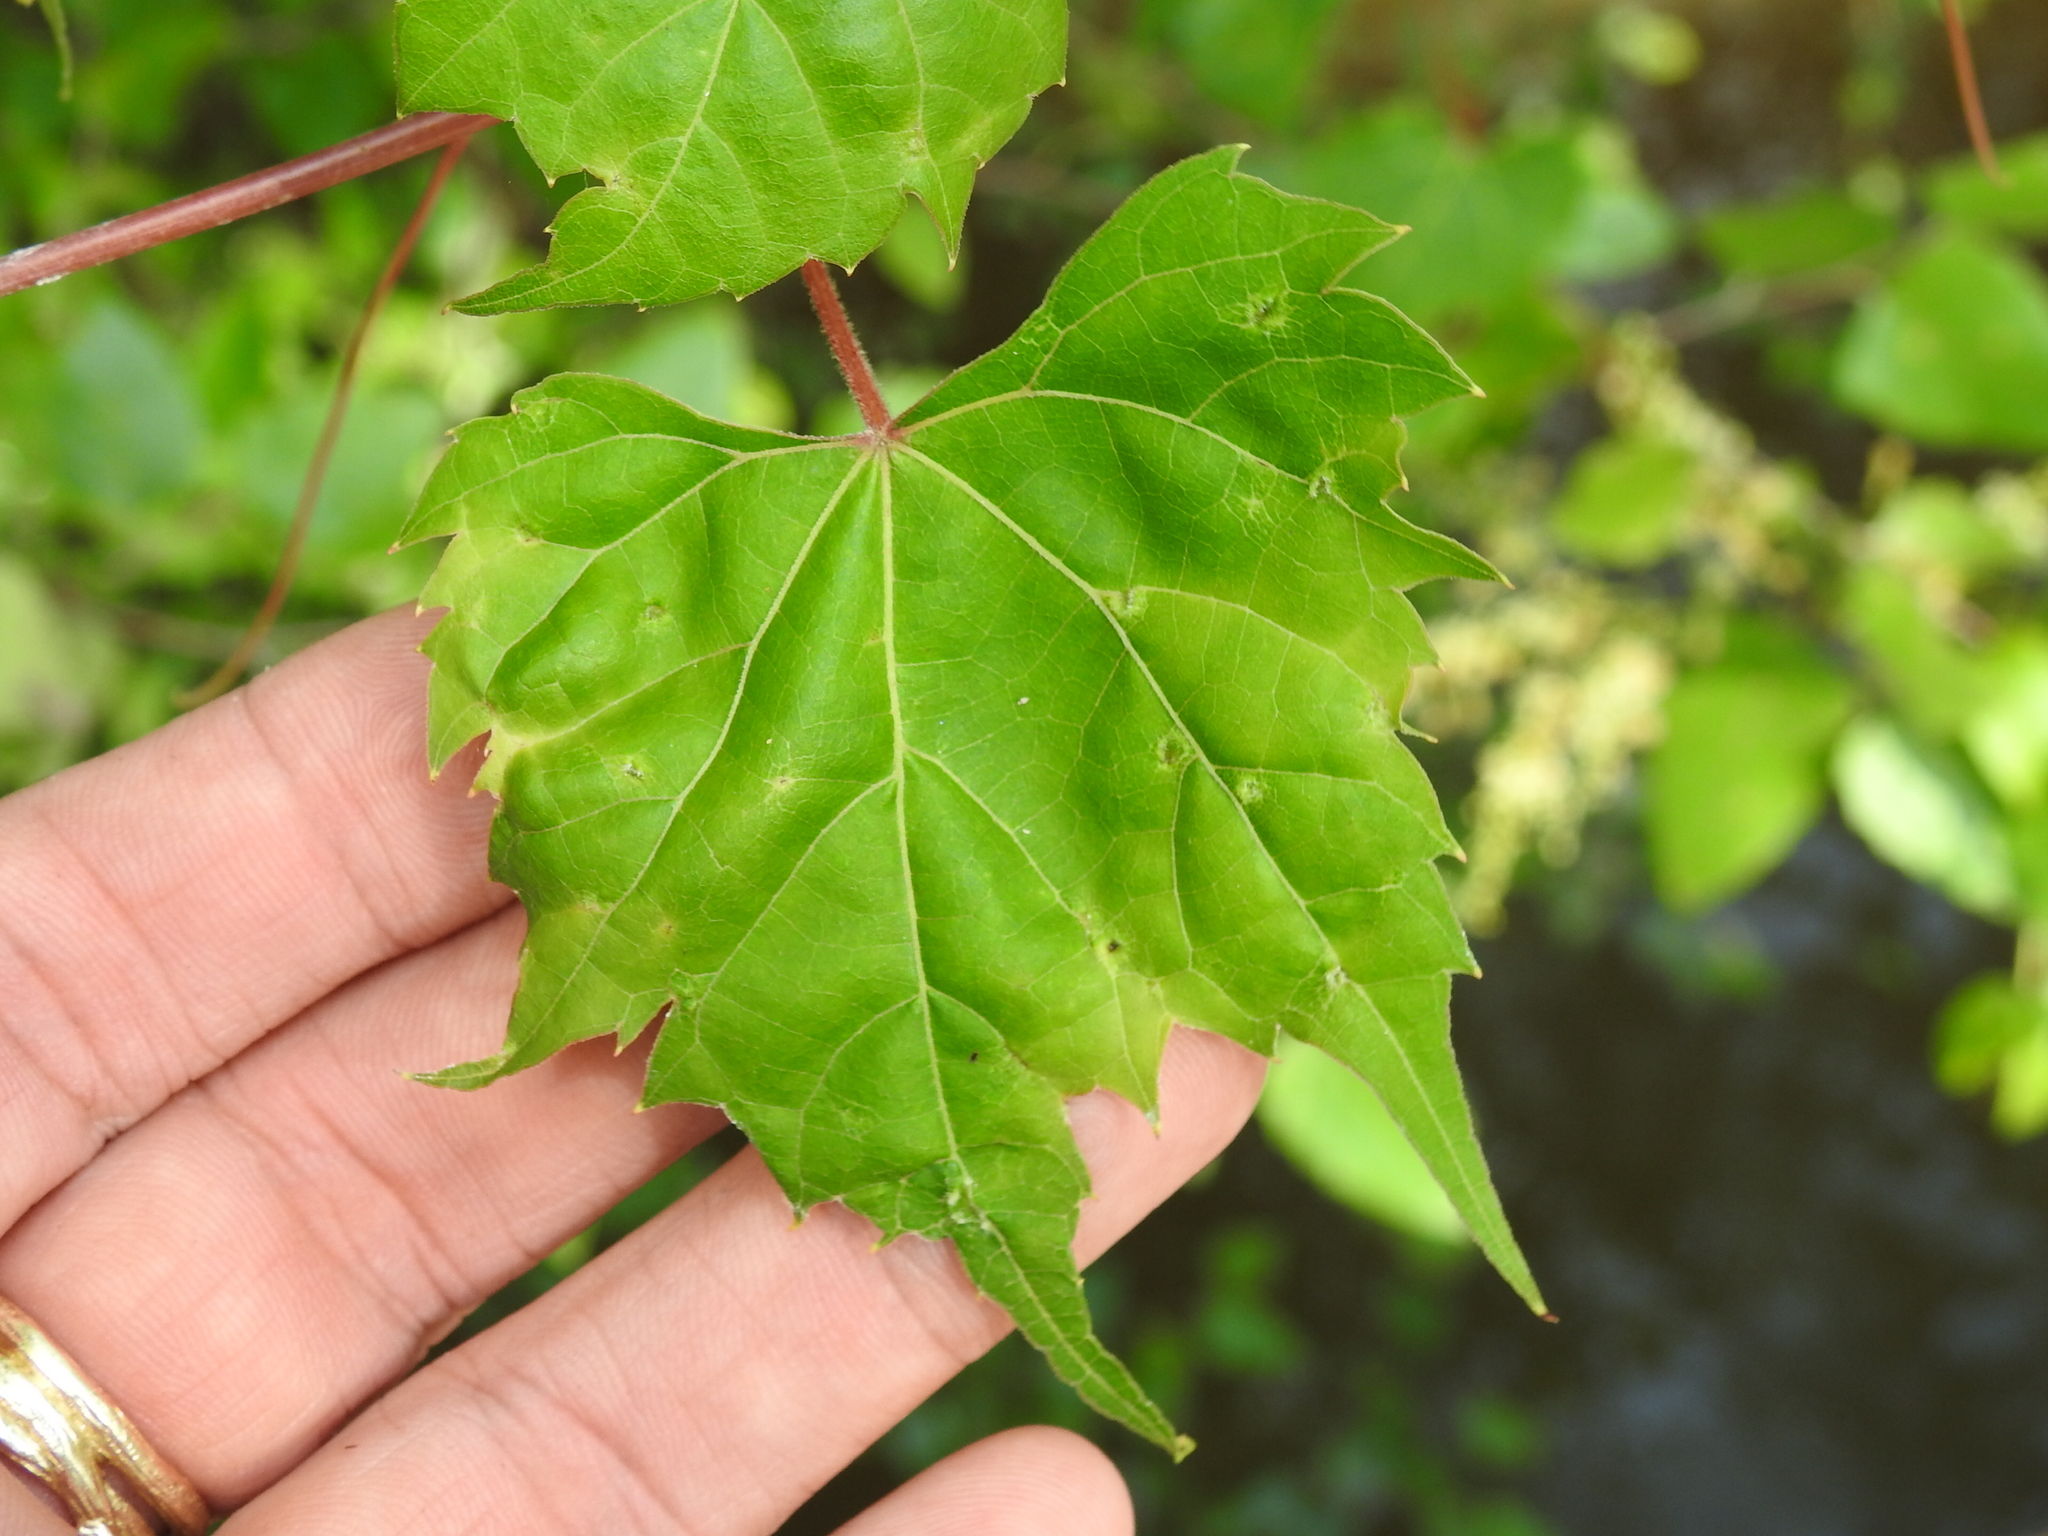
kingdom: Plantae
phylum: Tracheophyta
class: Magnoliopsida
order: Vitales
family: Vitaceae
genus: Vitis
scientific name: Vitis palmata
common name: Catbird grape
